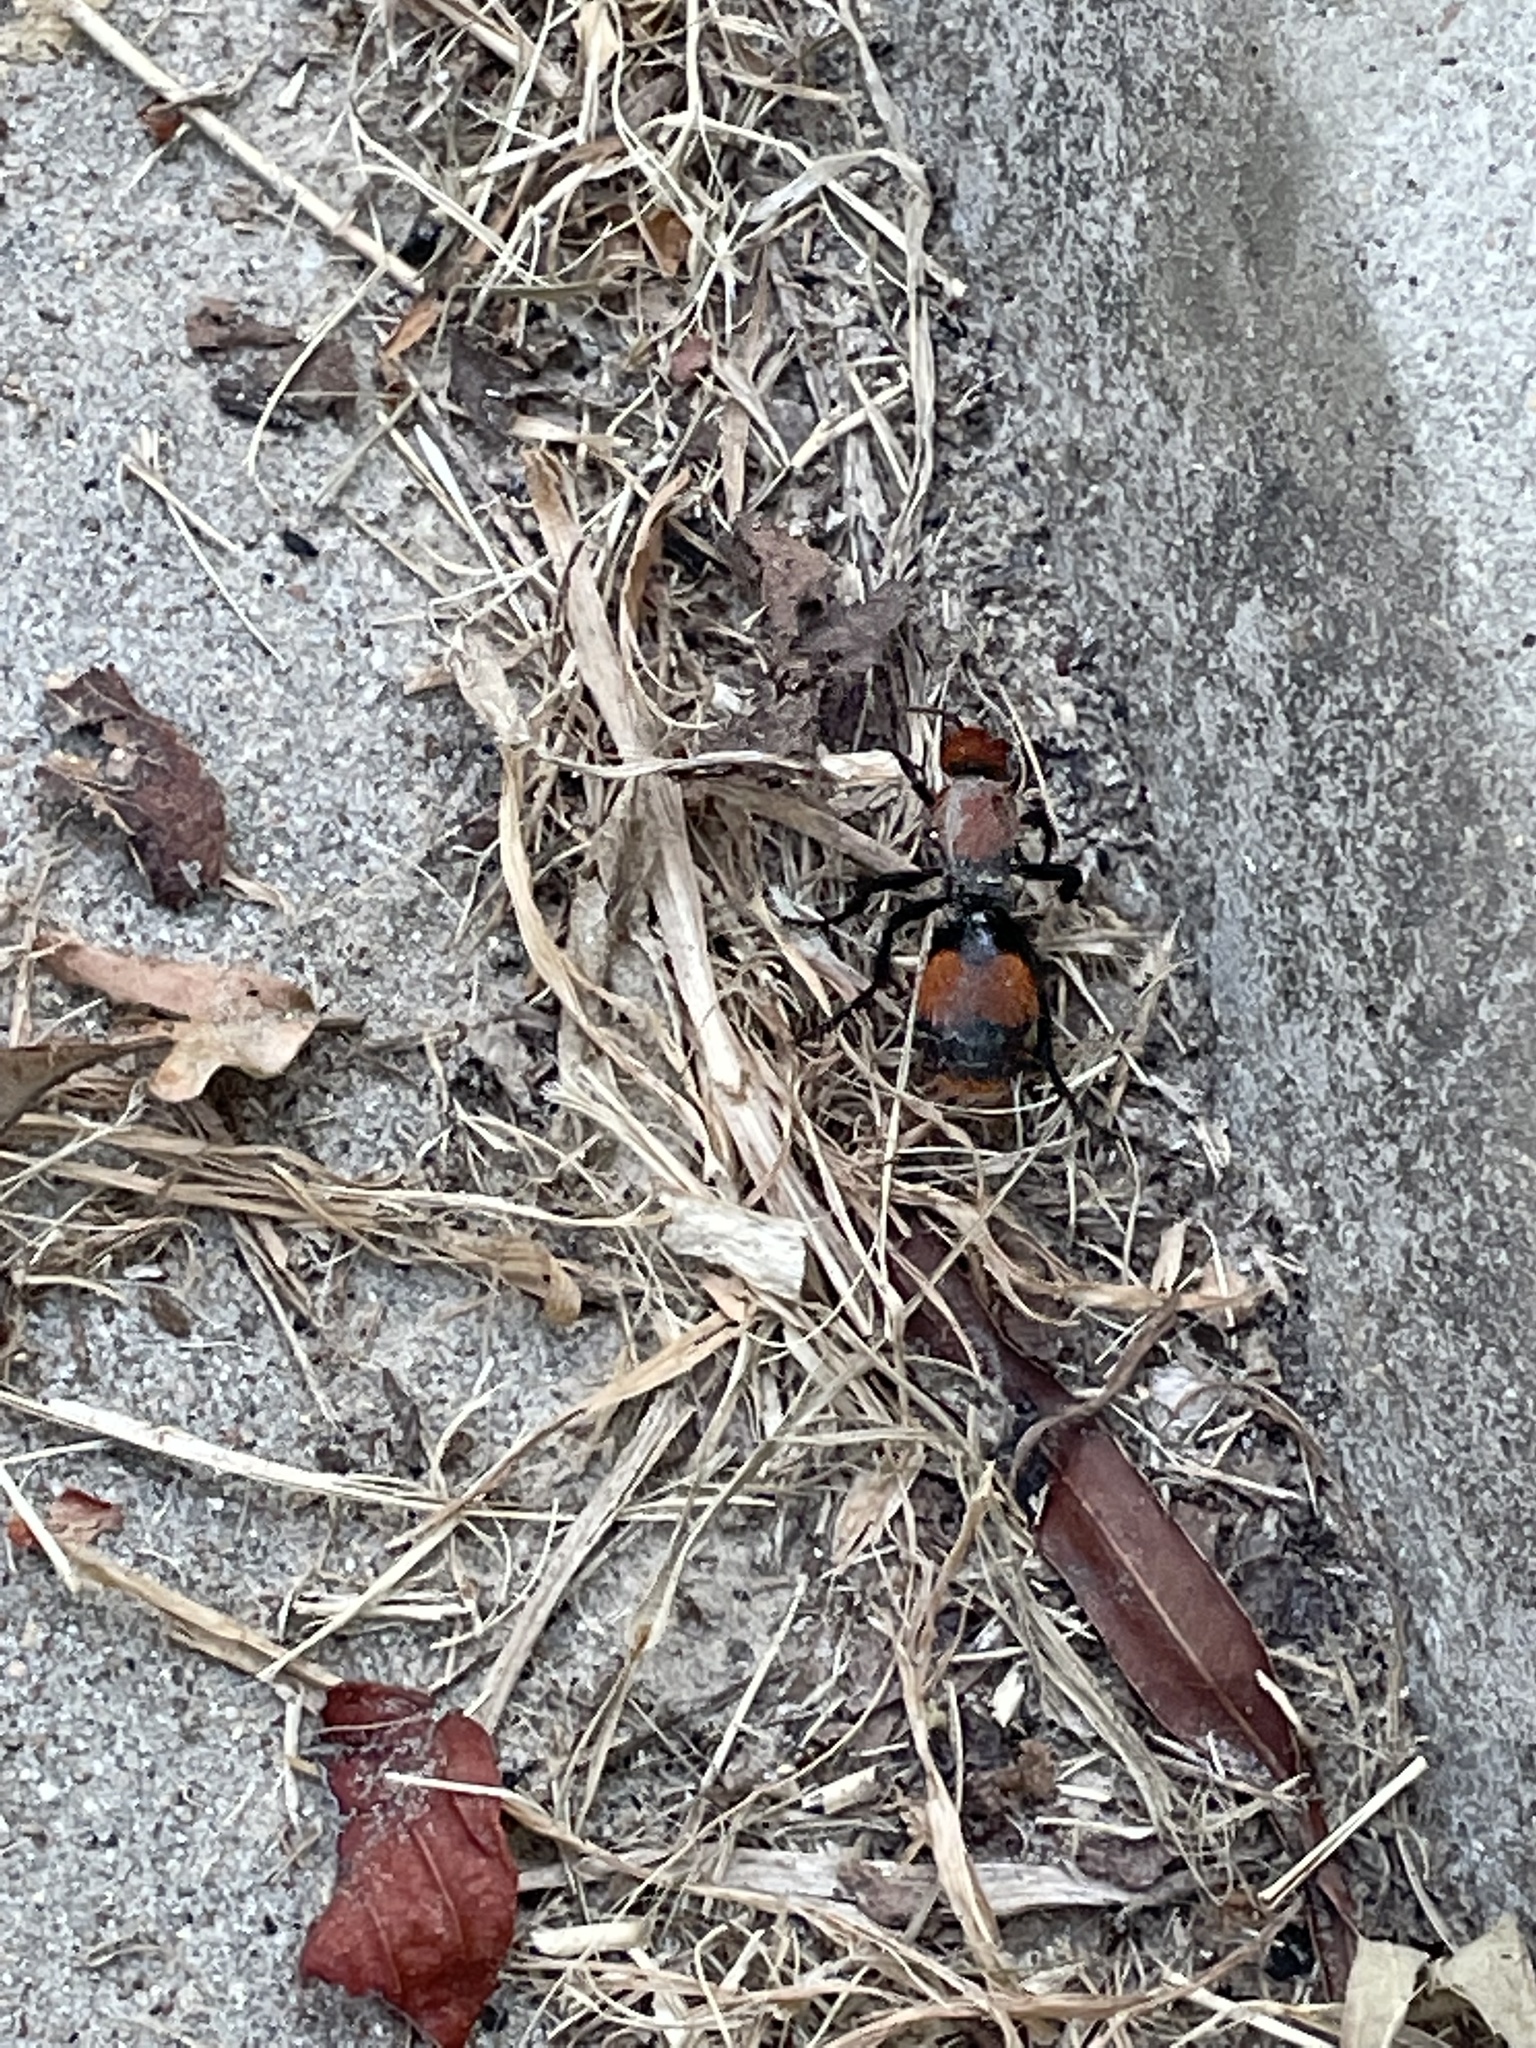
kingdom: Animalia
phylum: Arthropoda
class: Insecta
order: Hymenoptera
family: Mutillidae
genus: Dasymutilla
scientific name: Dasymutilla occidentalis
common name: Common eastern velvet ant
